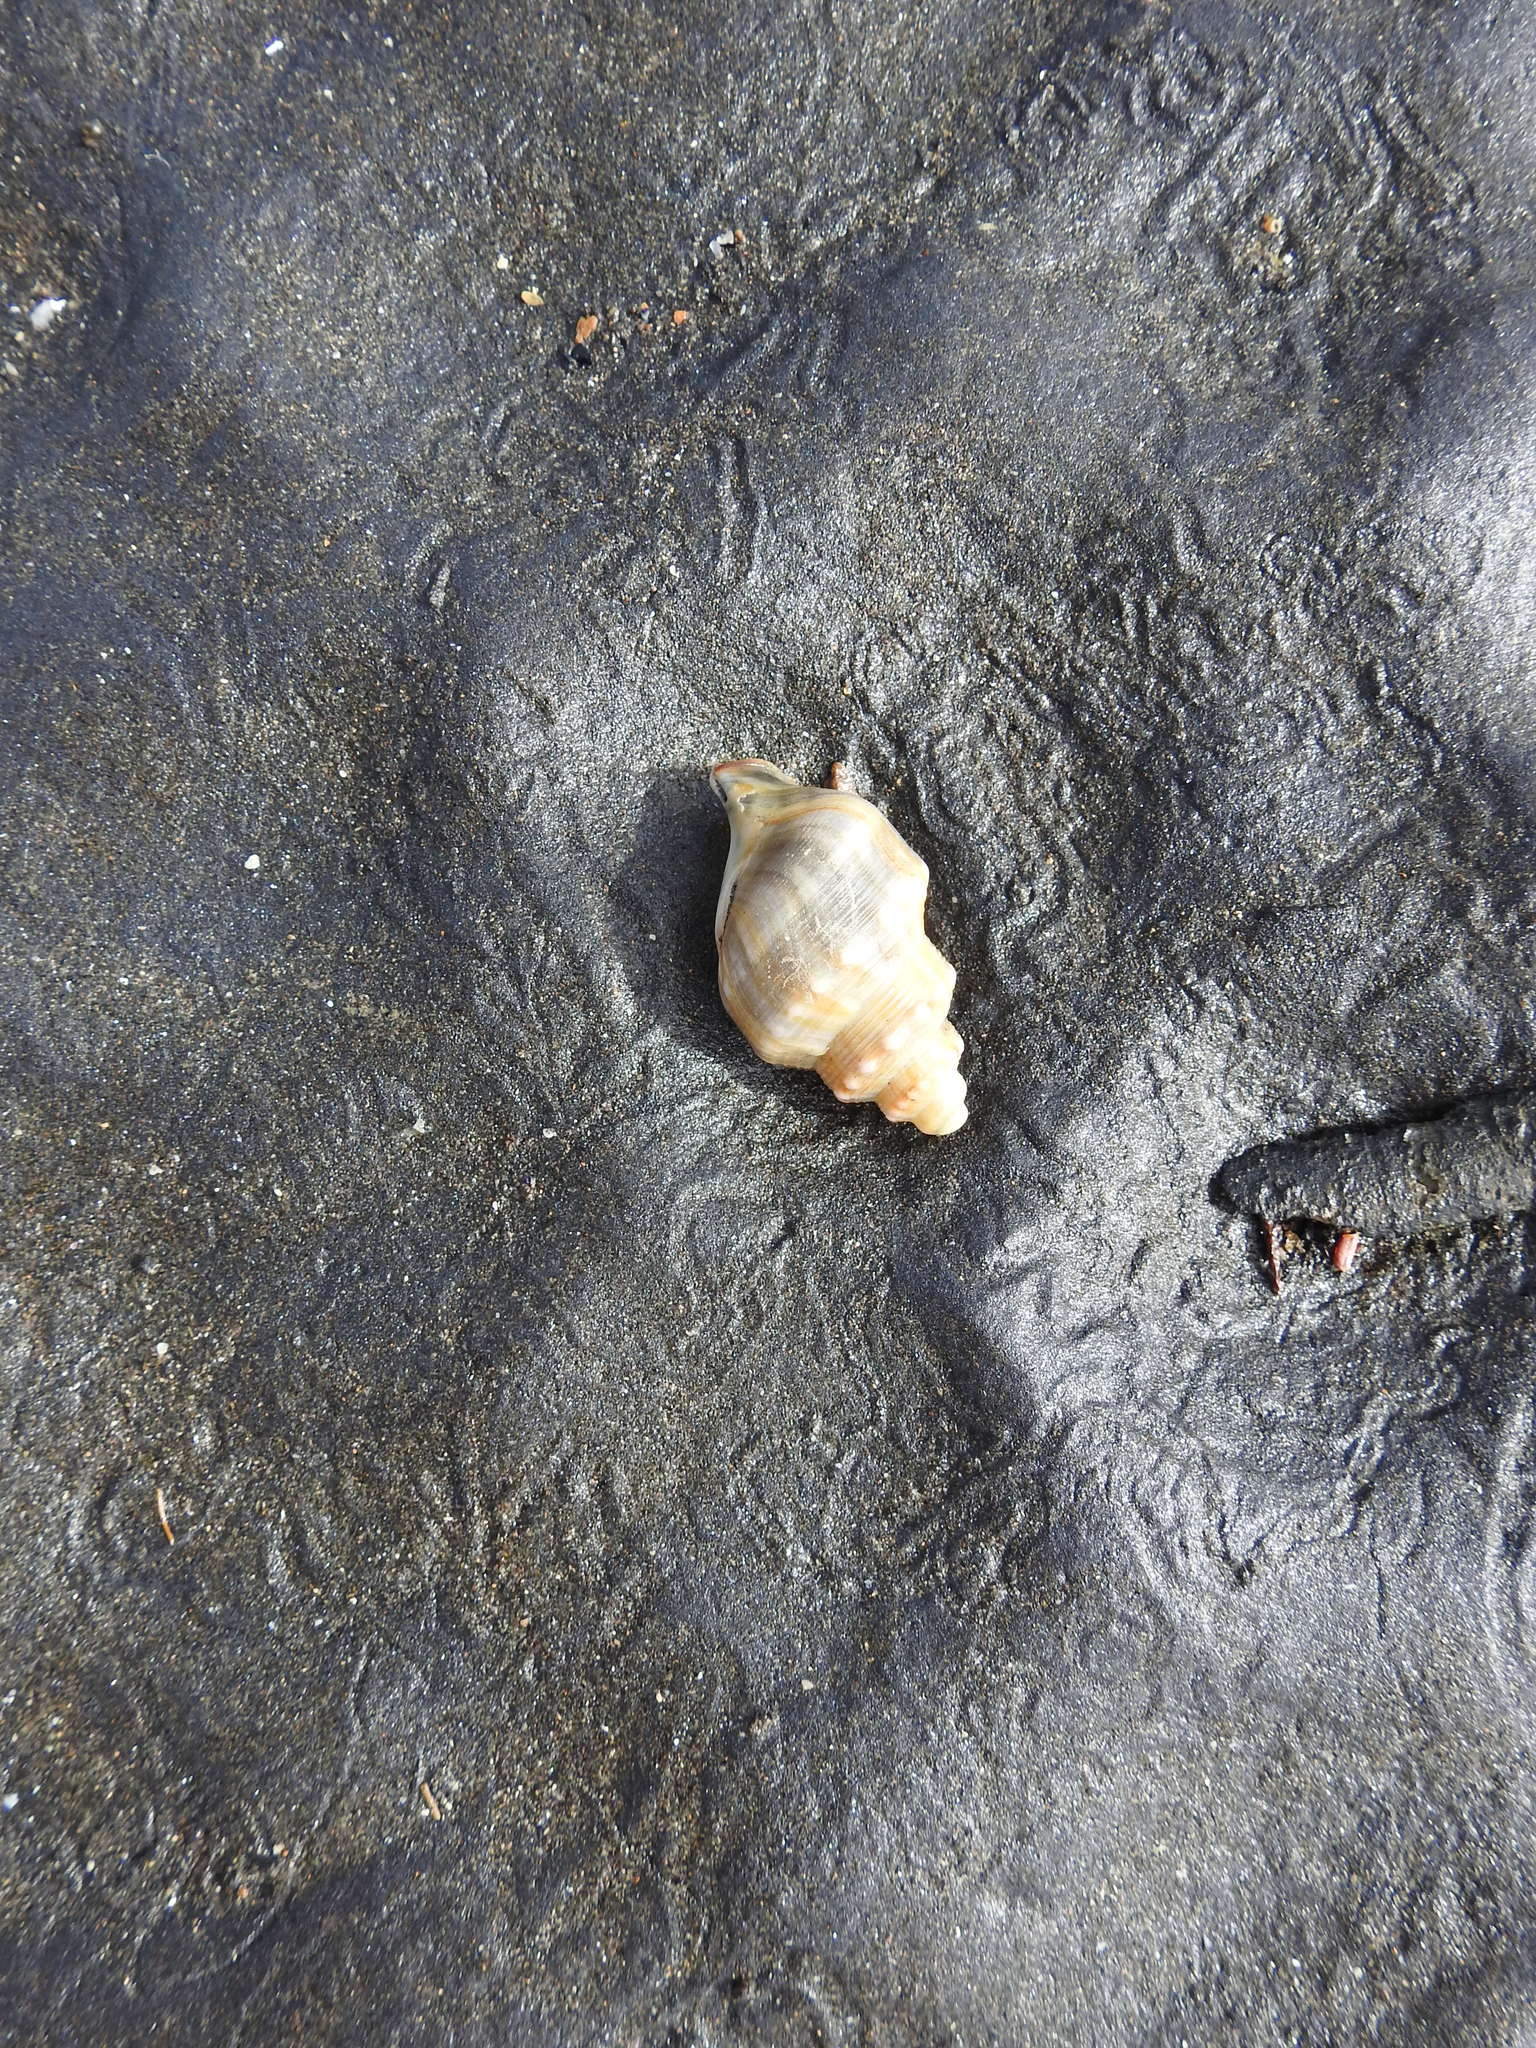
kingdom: Animalia
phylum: Mollusca
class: Gastropoda
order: Littorinimorpha
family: Struthiolariidae
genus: Struthiolaria
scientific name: Struthiolaria papulosa
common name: Large ostrich foot
